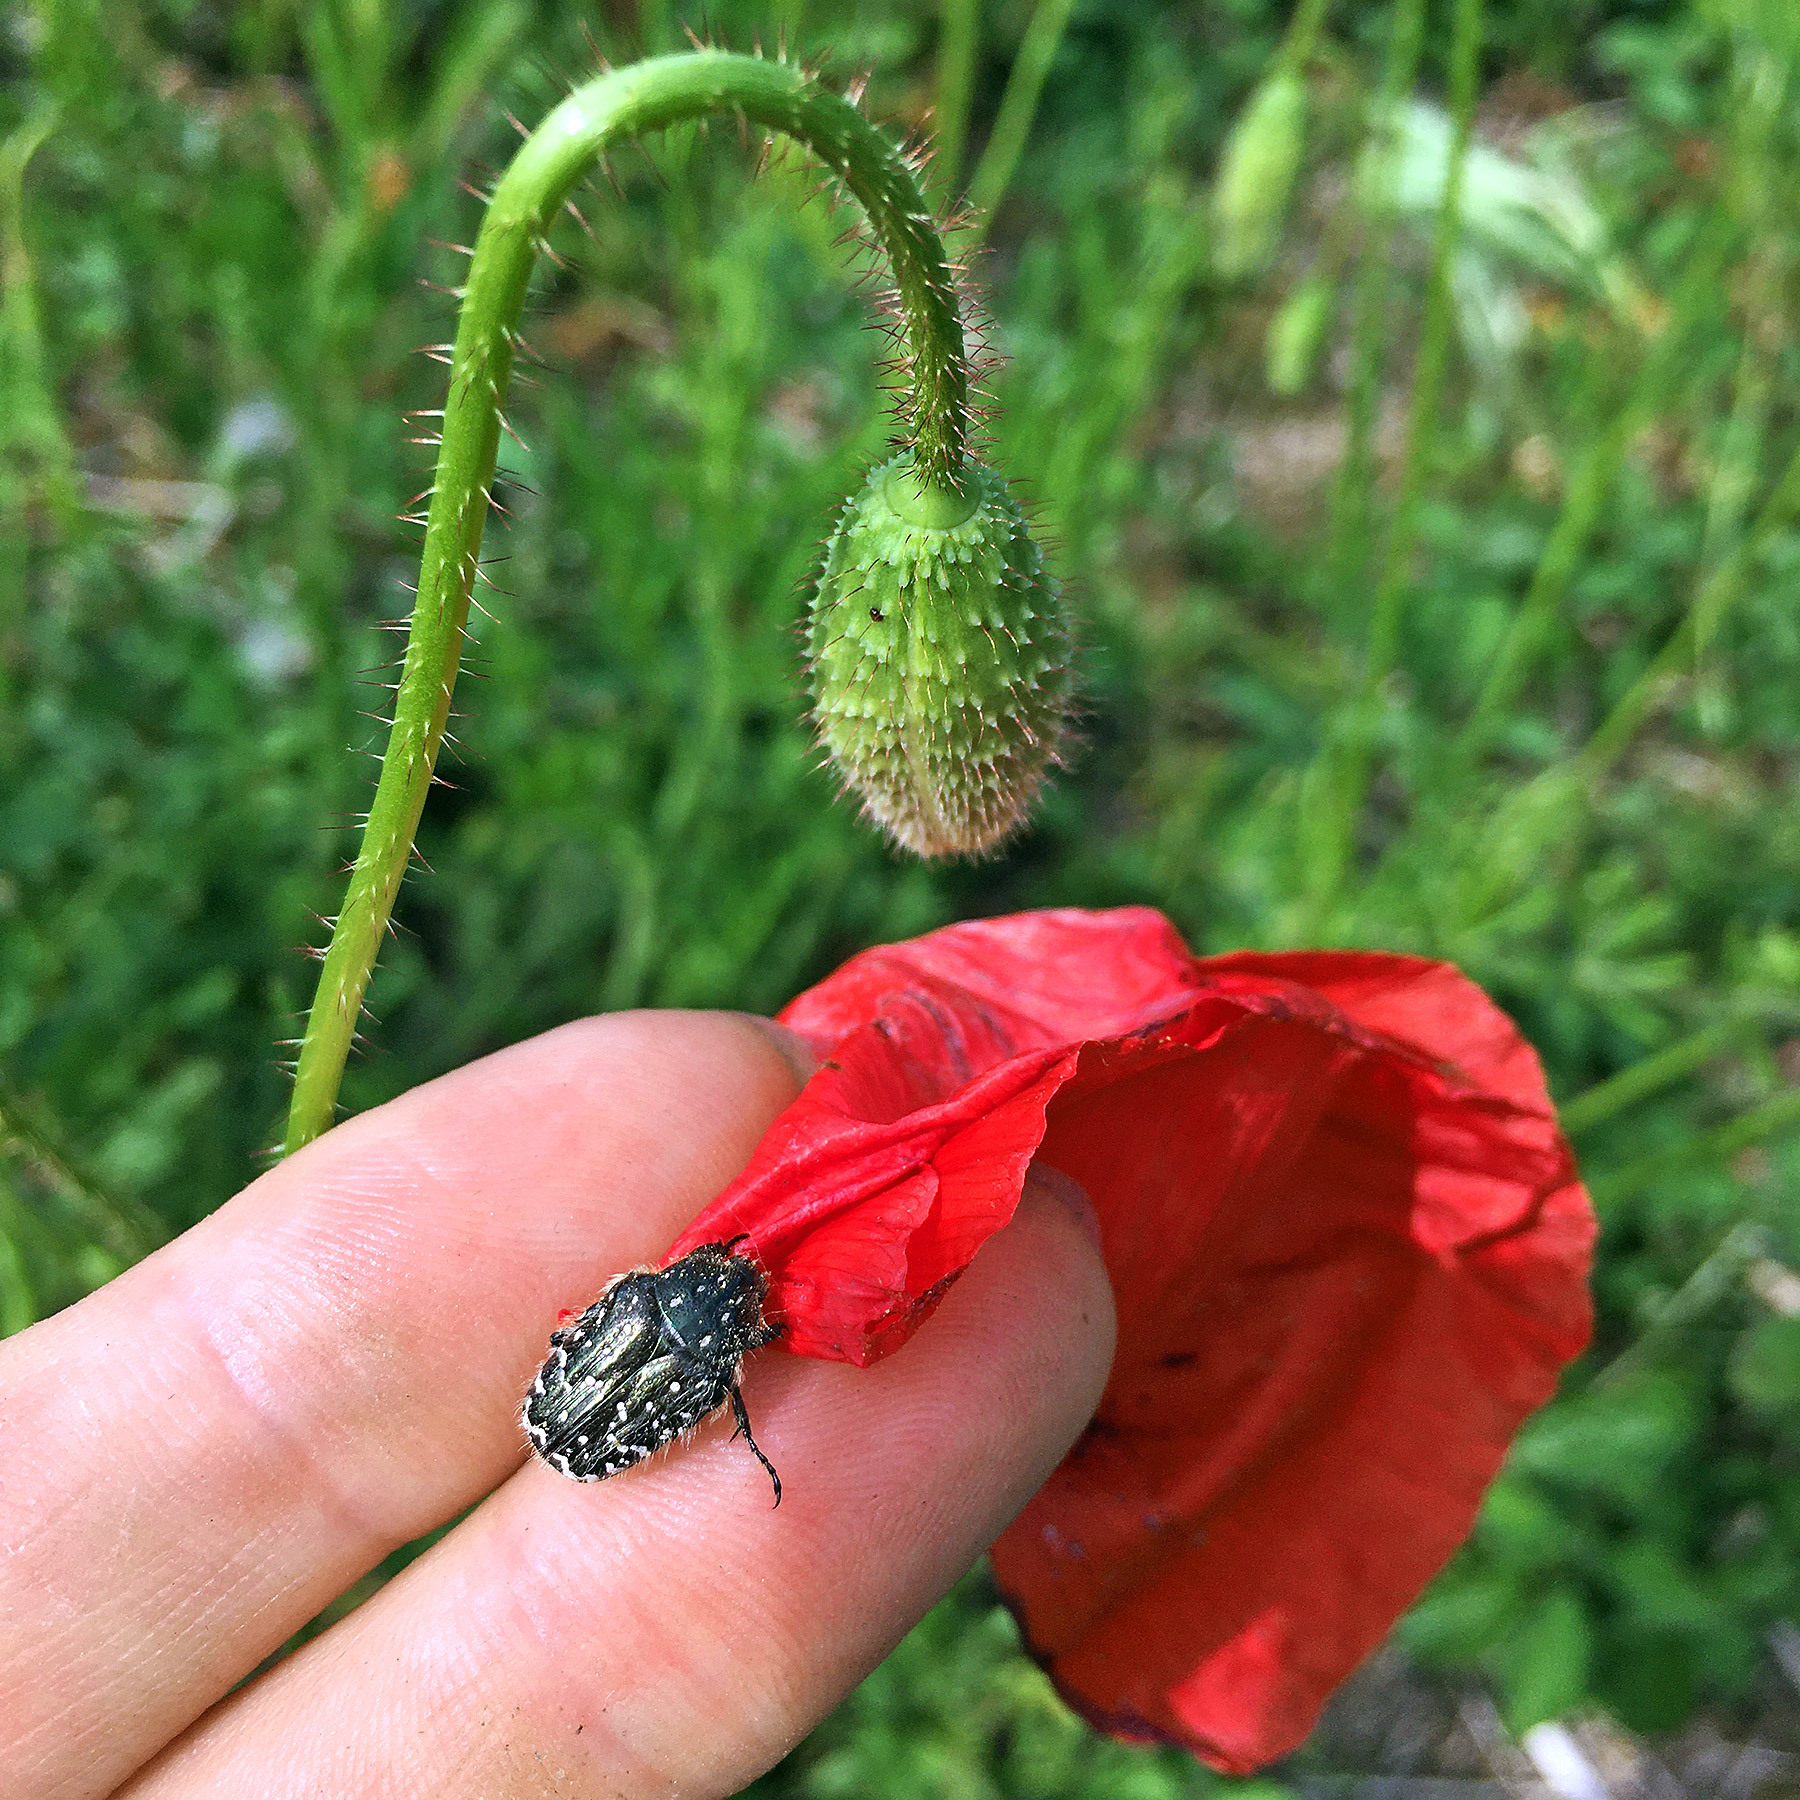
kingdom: Animalia
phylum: Arthropoda
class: Insecta
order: Coleoptera
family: Scarabaeidae
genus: Oxythyrea
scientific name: Oxythyrea funesta
